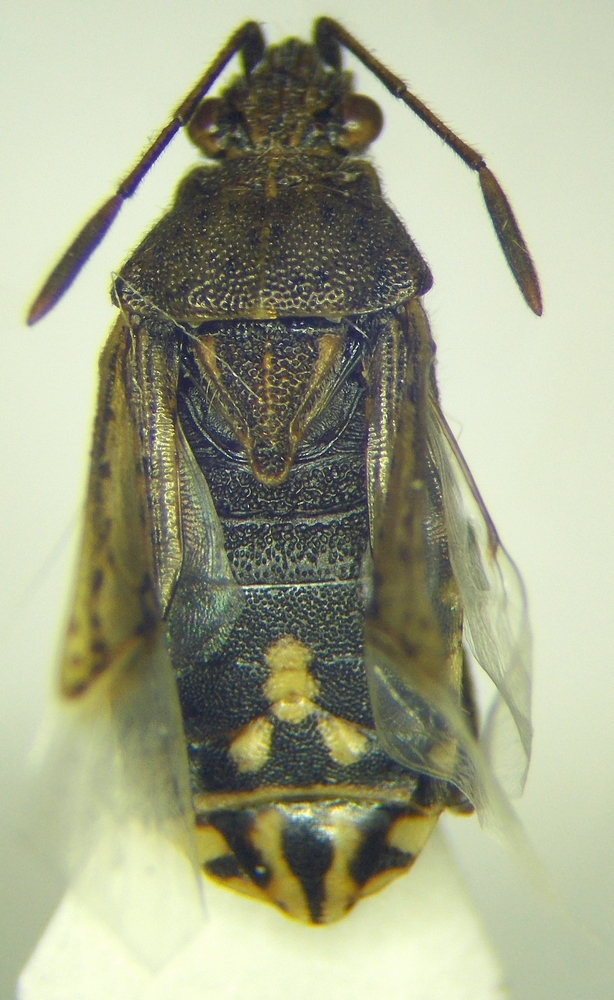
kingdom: Animalia
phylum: Arthropoda
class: Insecta
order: Hemiptera
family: Rhopalidae
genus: Stictopleurus
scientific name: Stictopleurus punctatonervosus
